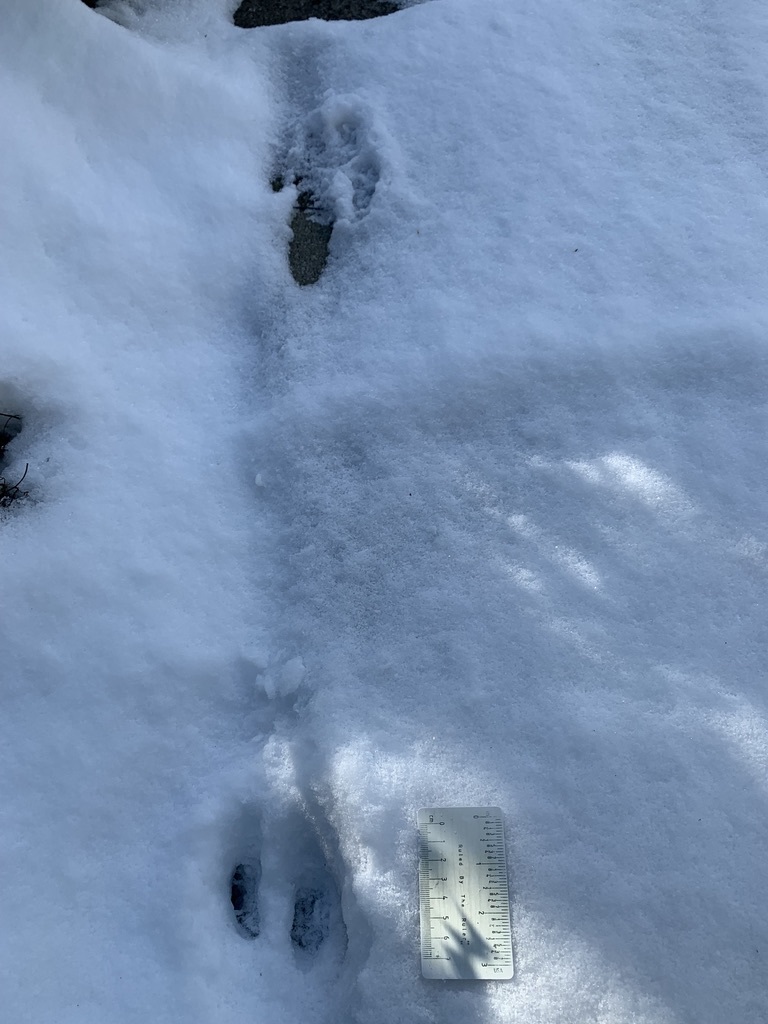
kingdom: Animalia
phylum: Chordata
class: Mammalia
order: Lagomorpha
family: Leporidae
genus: Sylvilagus
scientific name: Sylvilagus floridanus
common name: Eastern cottontail
